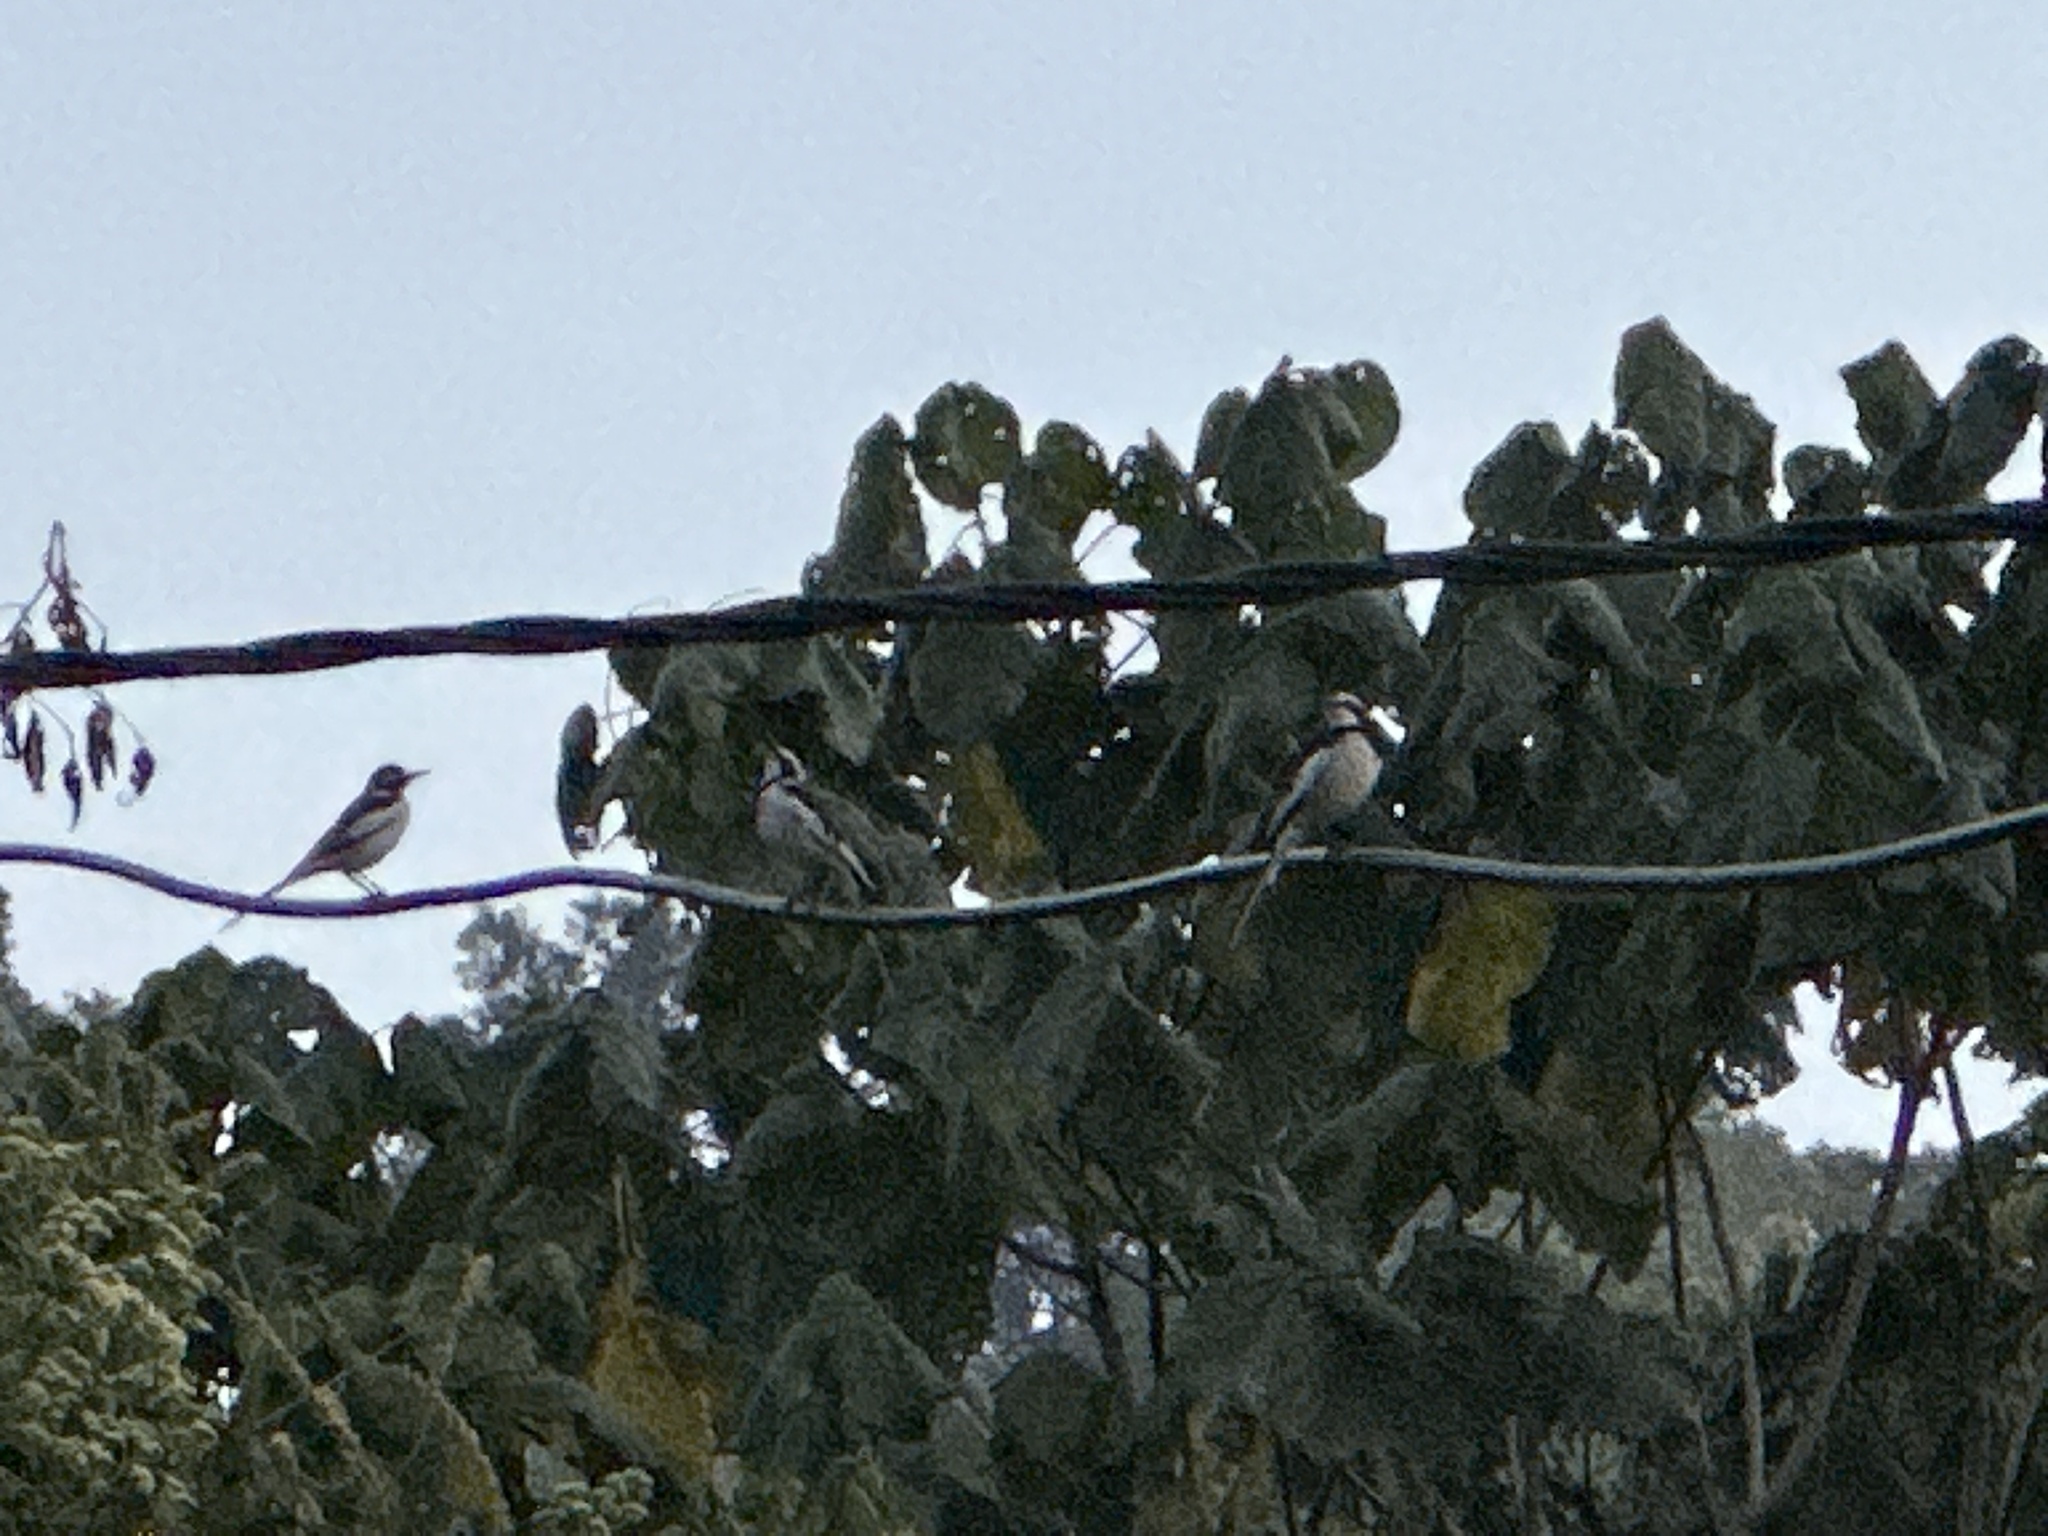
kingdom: Animalia
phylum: Chordata
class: Aves
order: Passeriformes
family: Motacillidae
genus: Motacilla
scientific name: Motacilla aguimp
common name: African pied wagtail
